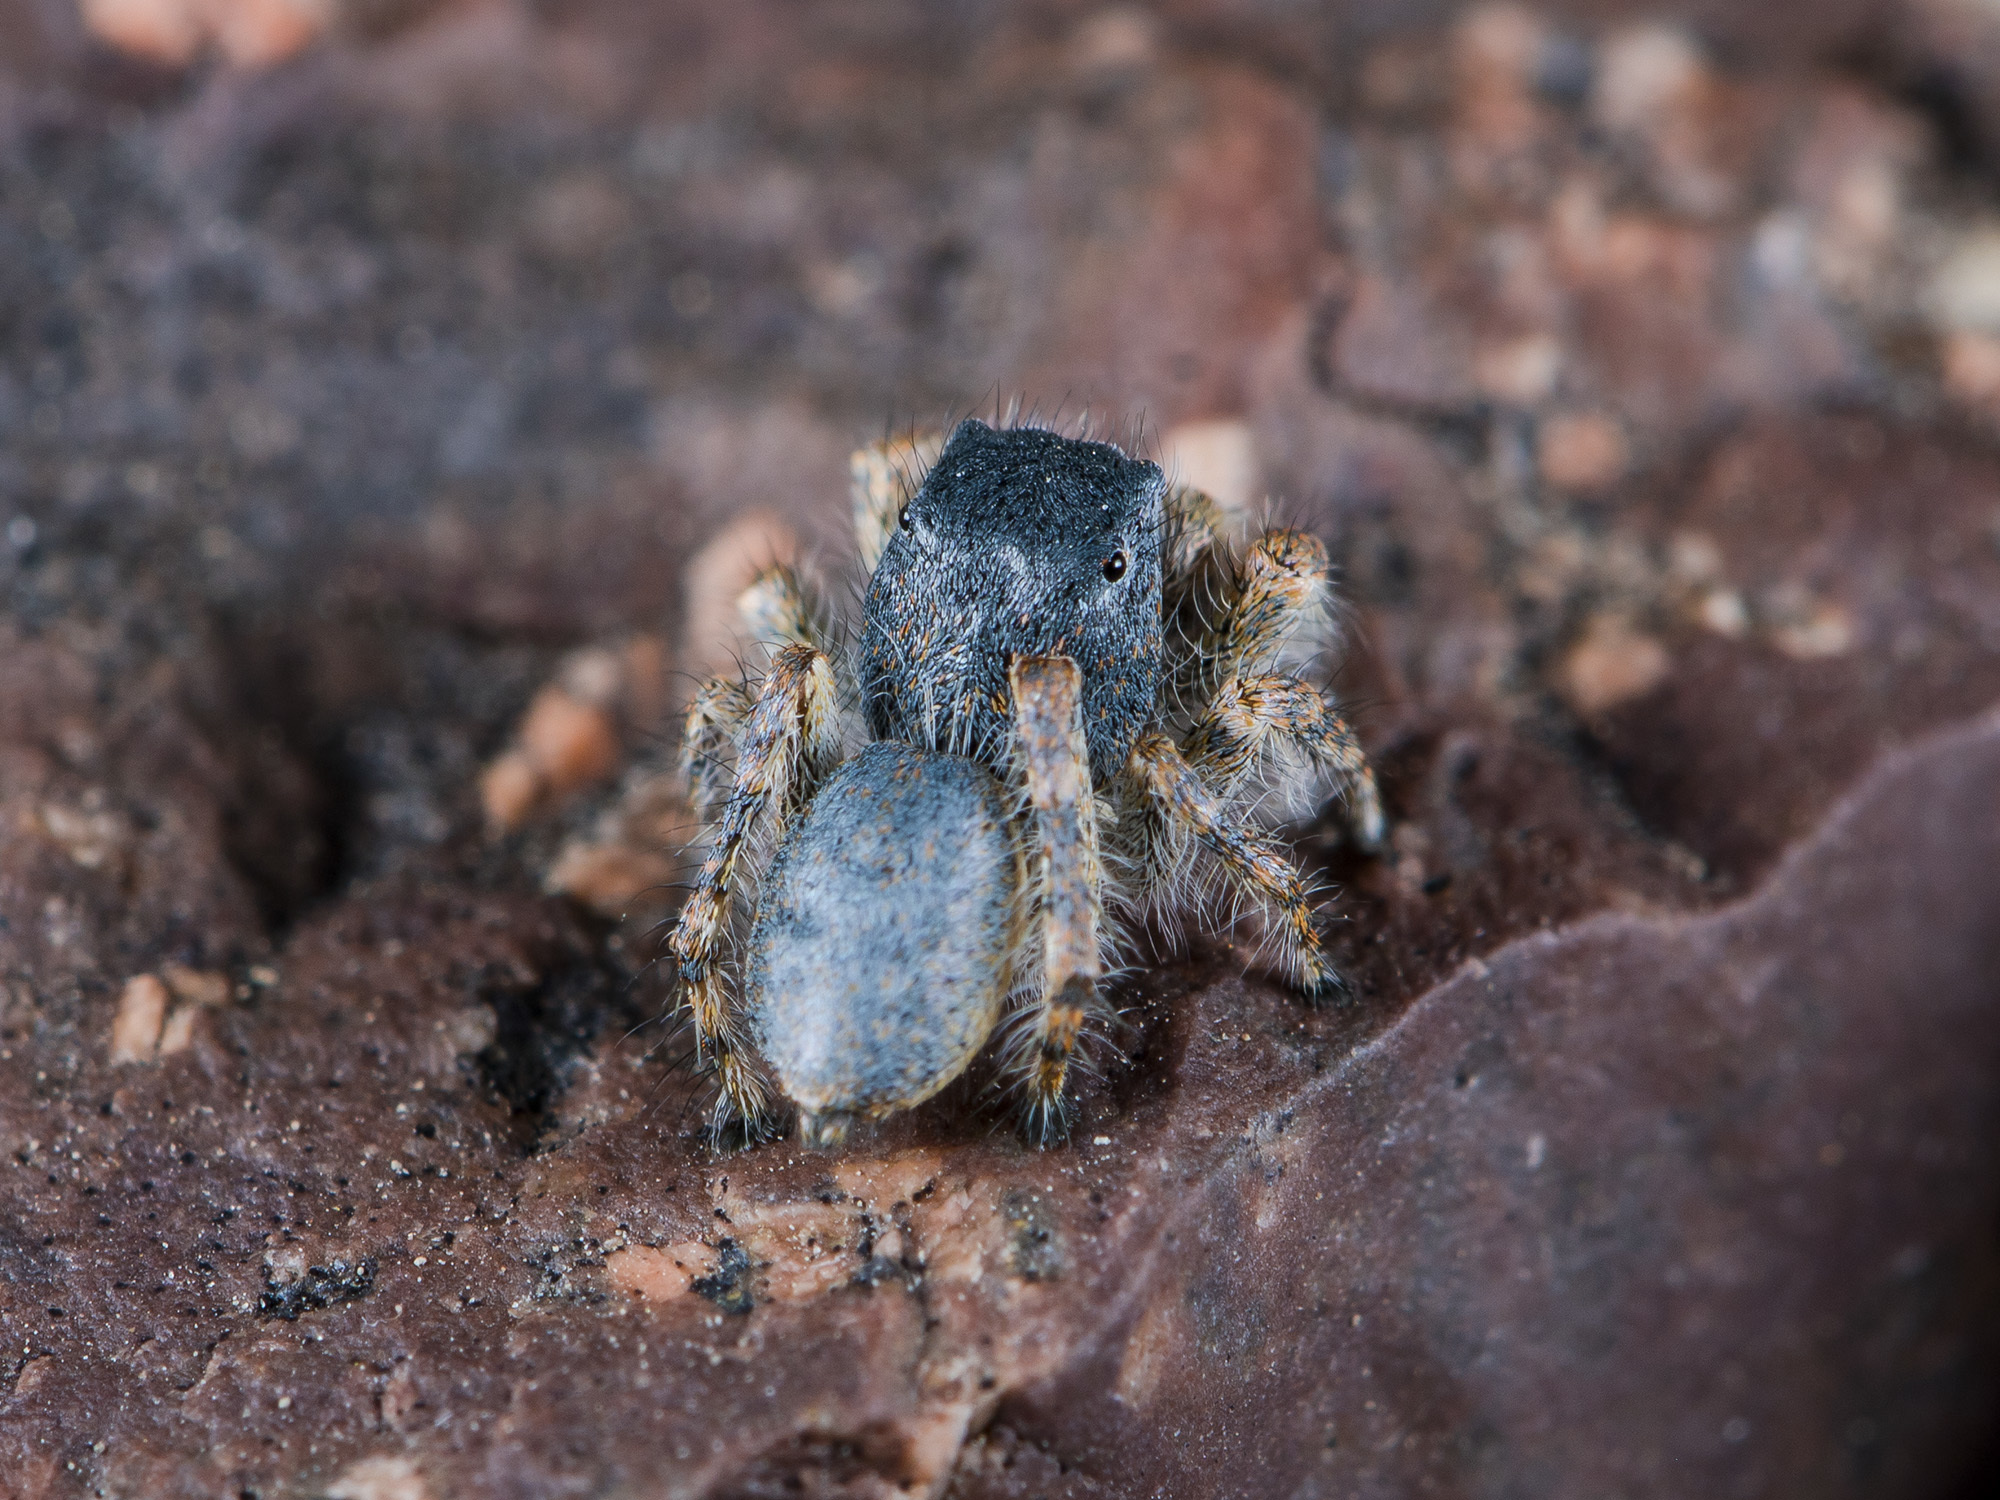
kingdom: Animalia
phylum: Arthropoda
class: Arachnida
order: Araneae
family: Salticidae
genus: Yllenus
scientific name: Yllenus zyuzini
